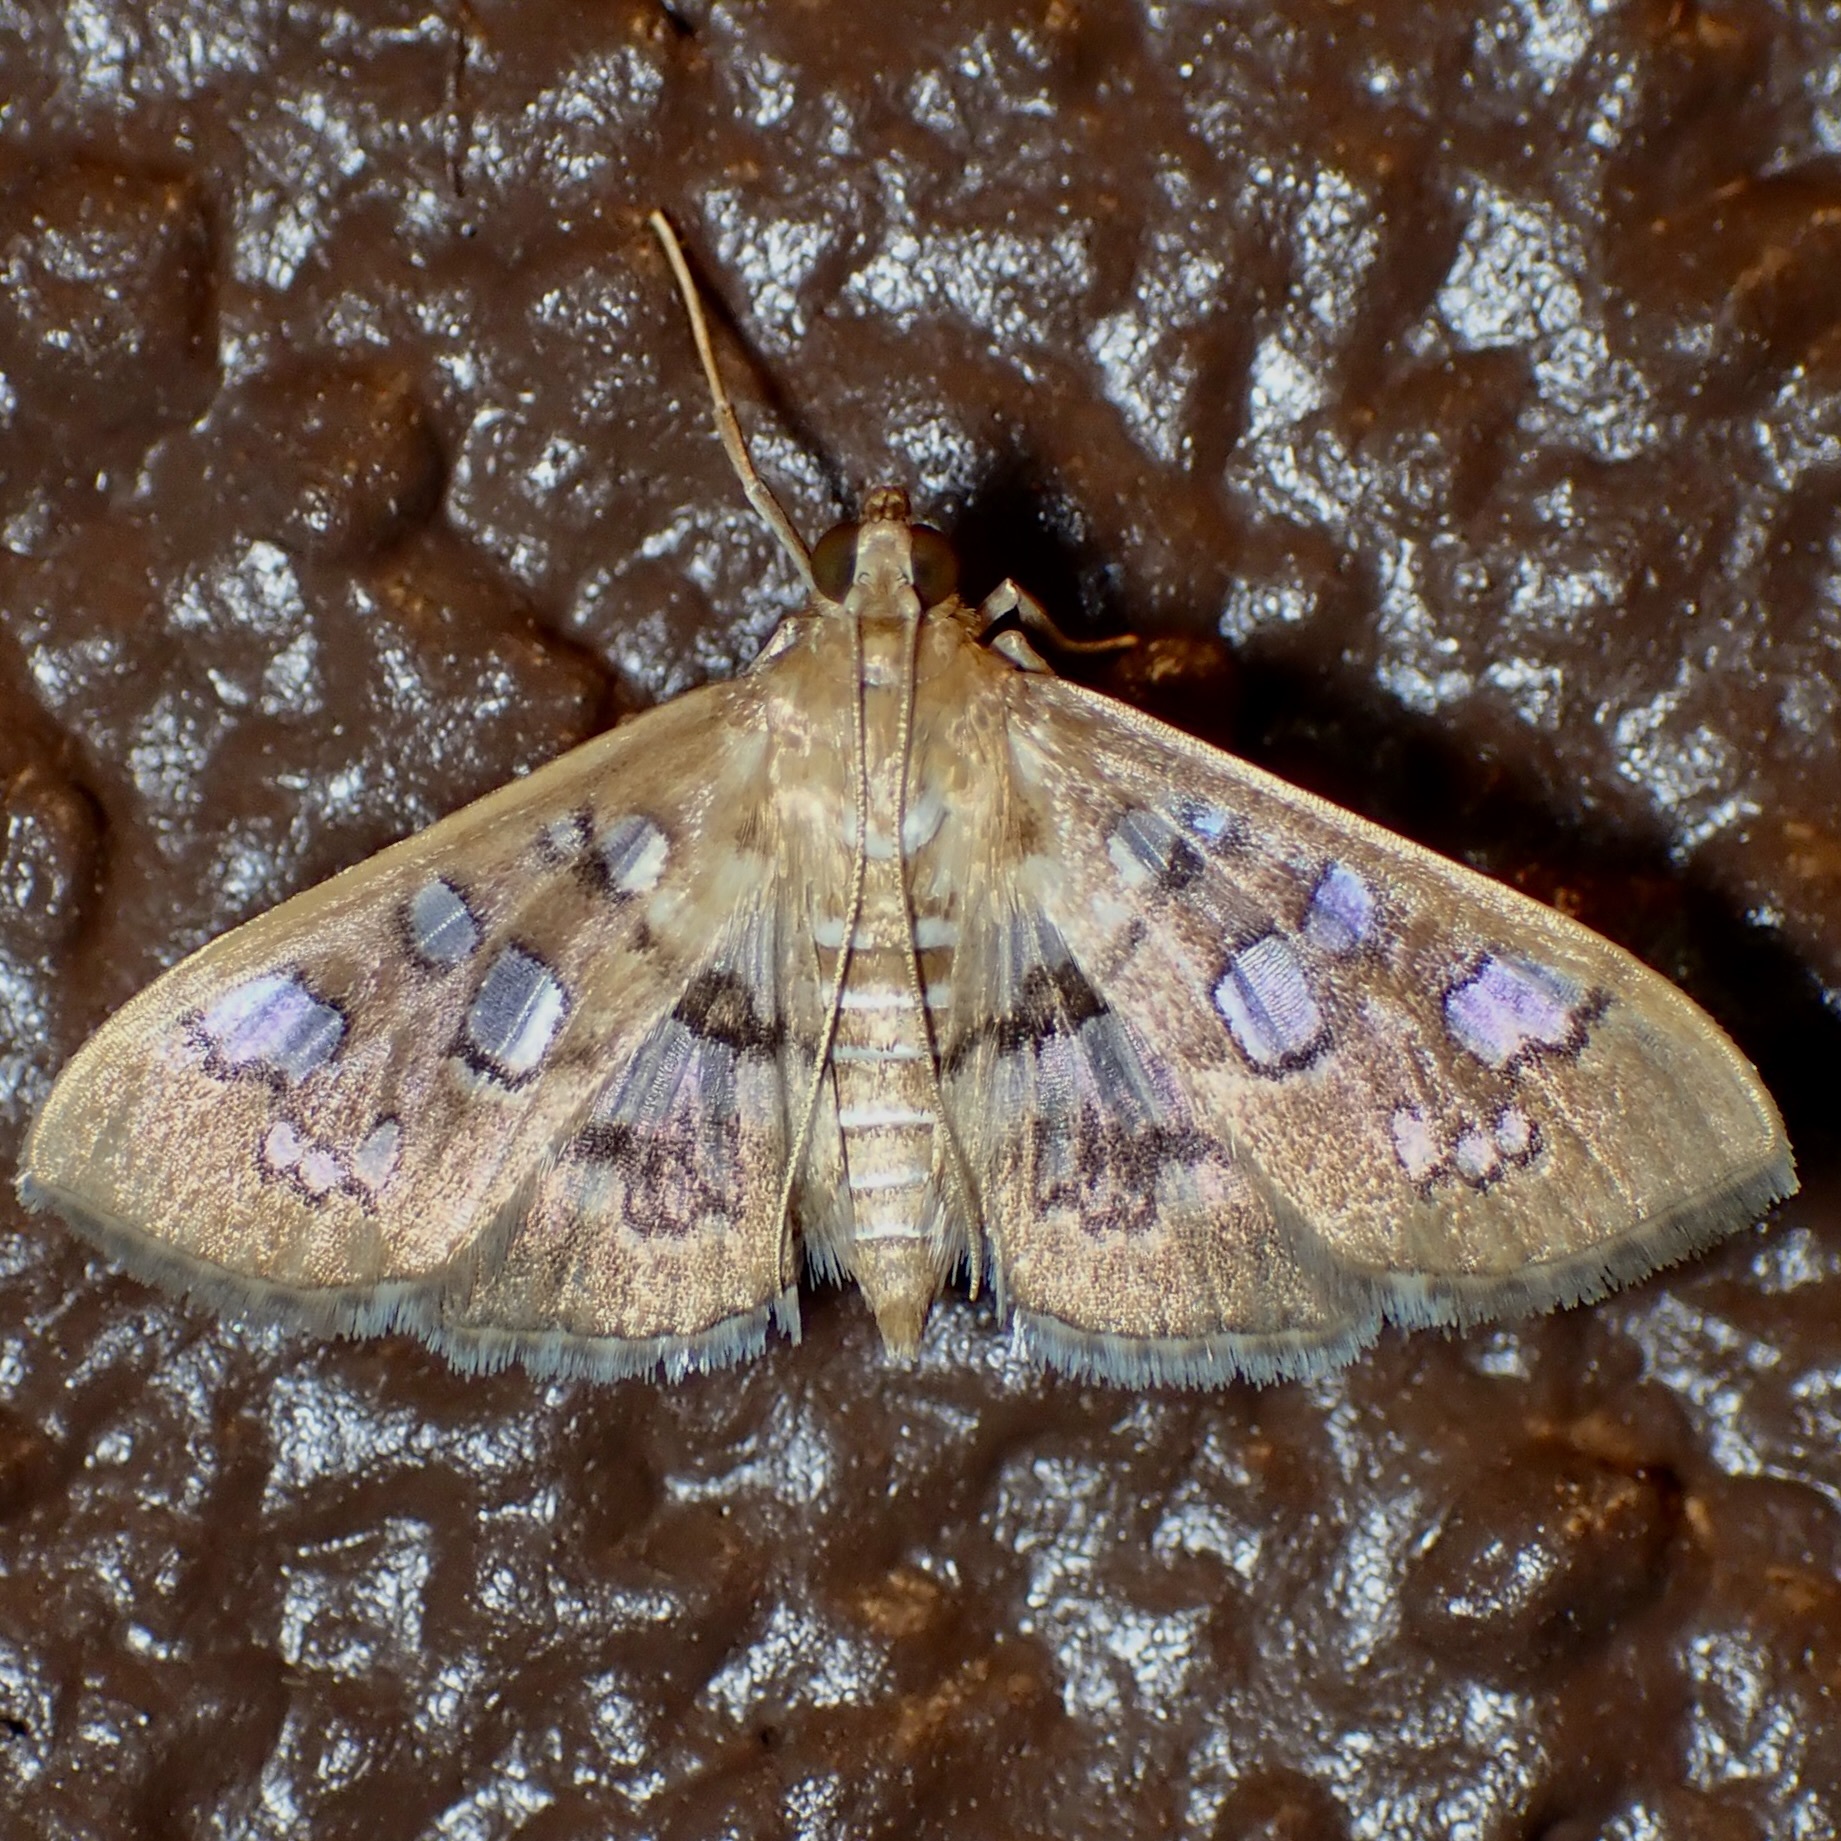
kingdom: Animalia
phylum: Arthropoda
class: Insecta
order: Lepidoptera
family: Crambidae
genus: Samea
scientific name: Samea baccatalis
